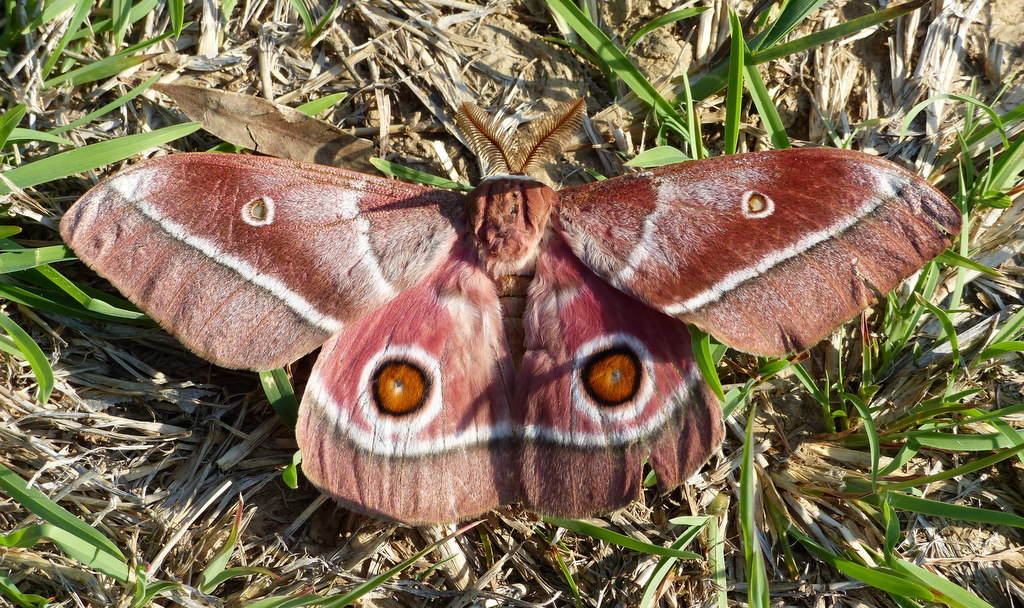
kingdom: Animalia
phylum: Arthropoda
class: Insecta
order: Lepidoptera
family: Saturniidae
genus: Gonimbrasia
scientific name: Gonimbrasia belina
